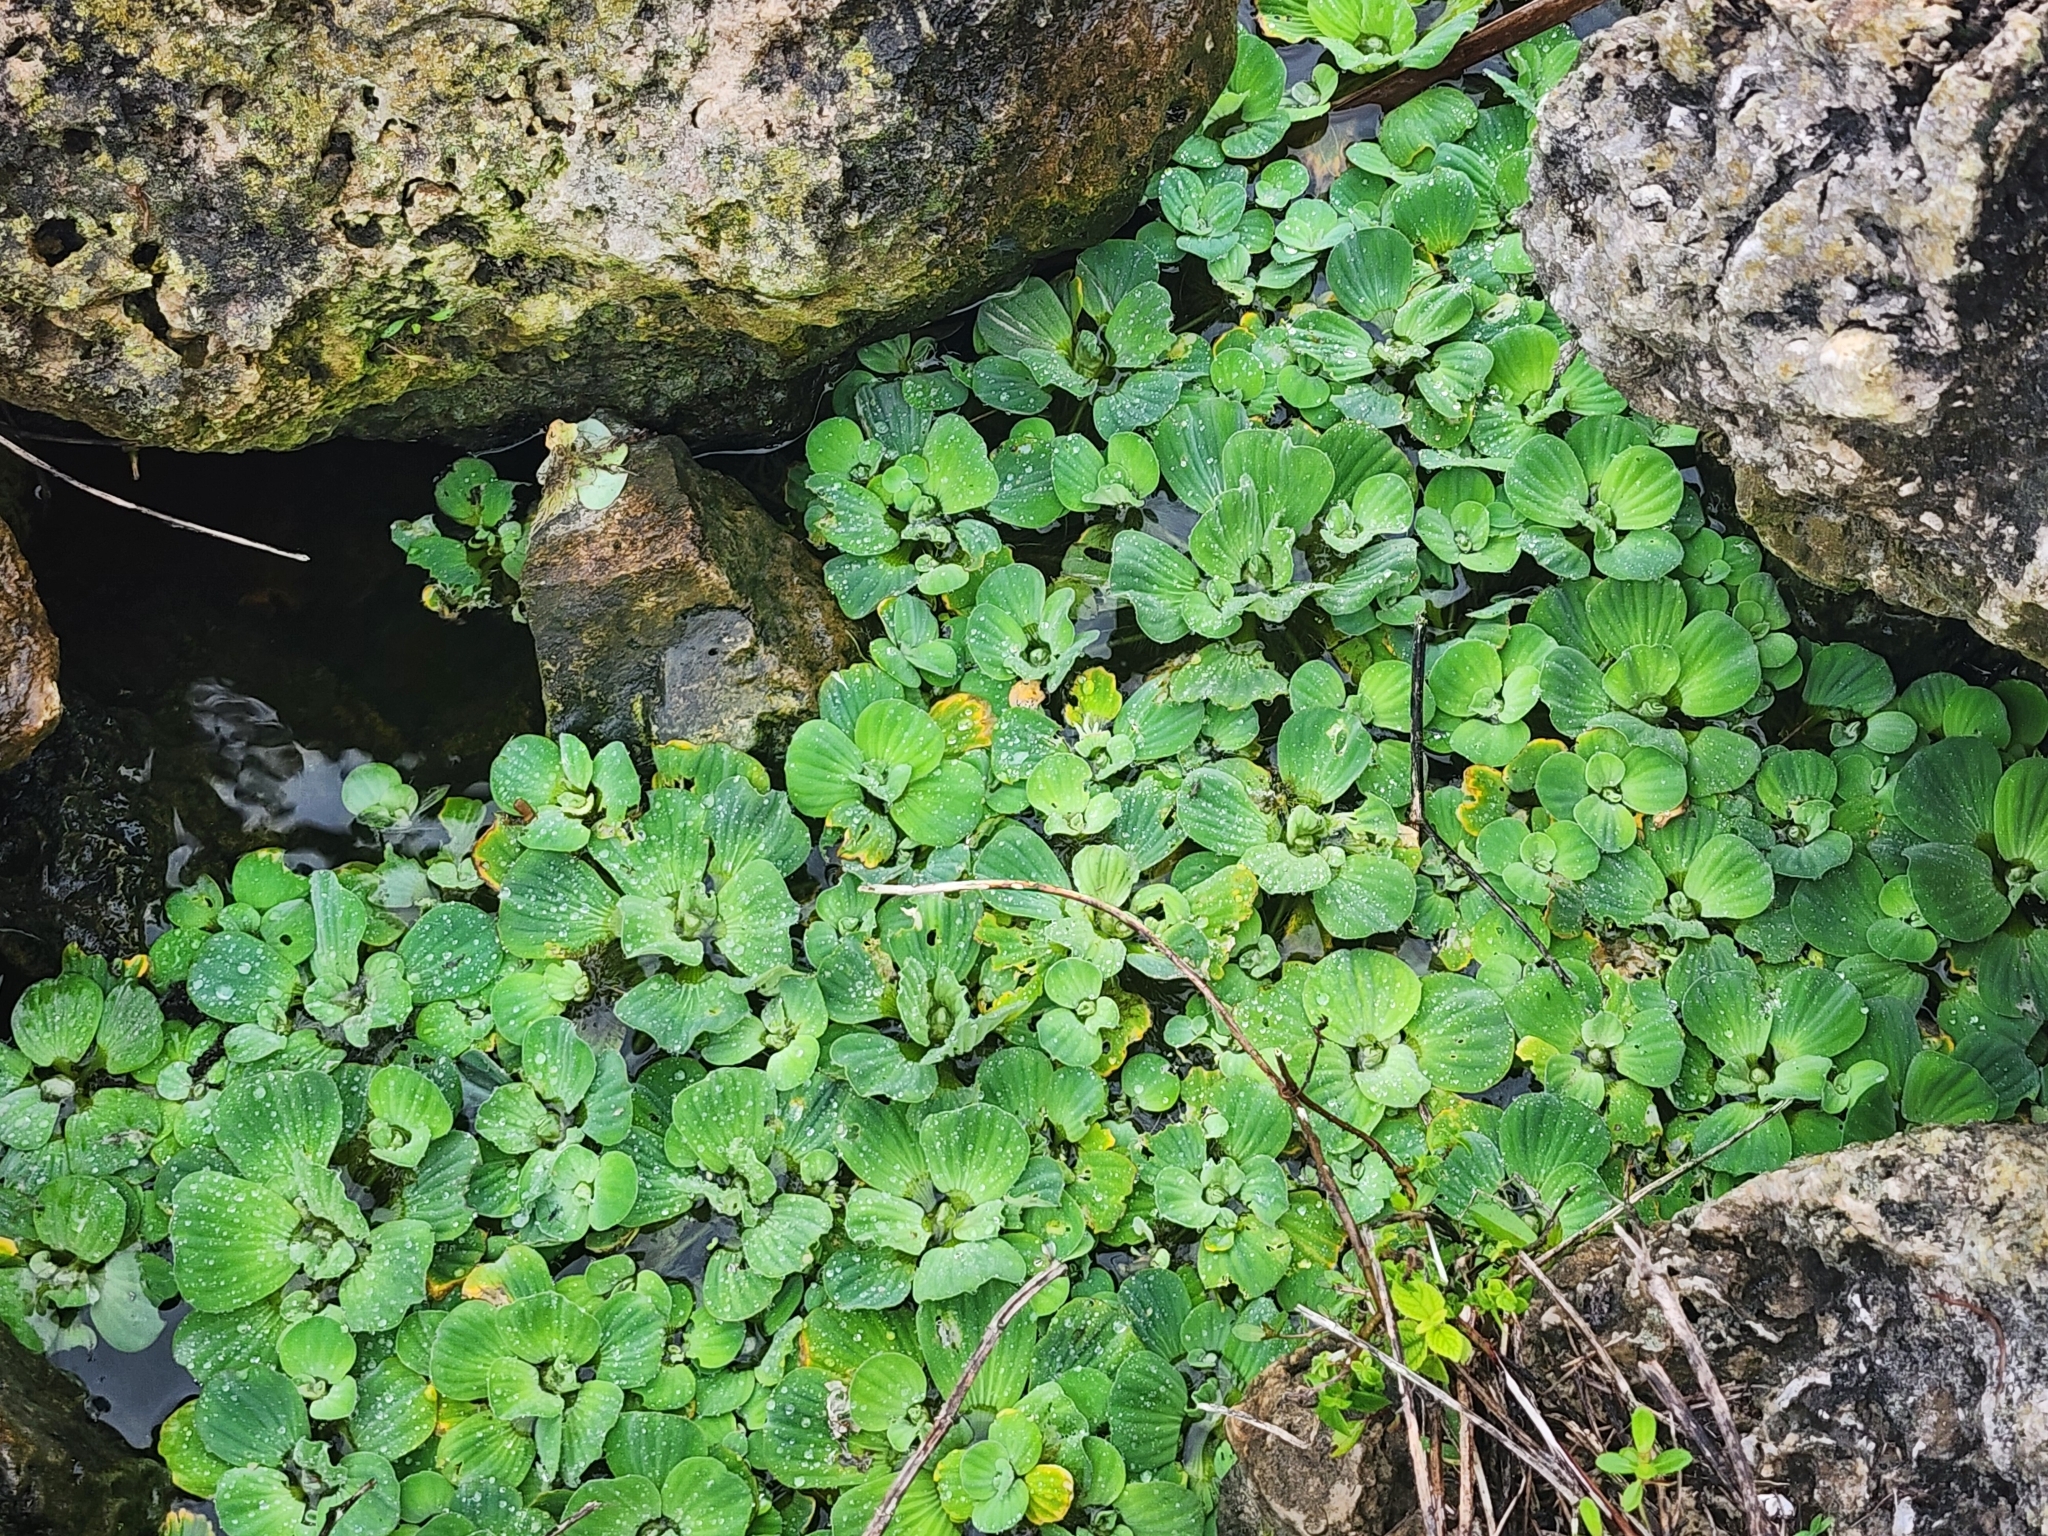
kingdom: Plantae
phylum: Tracheophyta
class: Liliopsida
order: Alismatales
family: Araceae
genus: Pistia
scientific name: Pistia stratiotes
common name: Water lettuce
